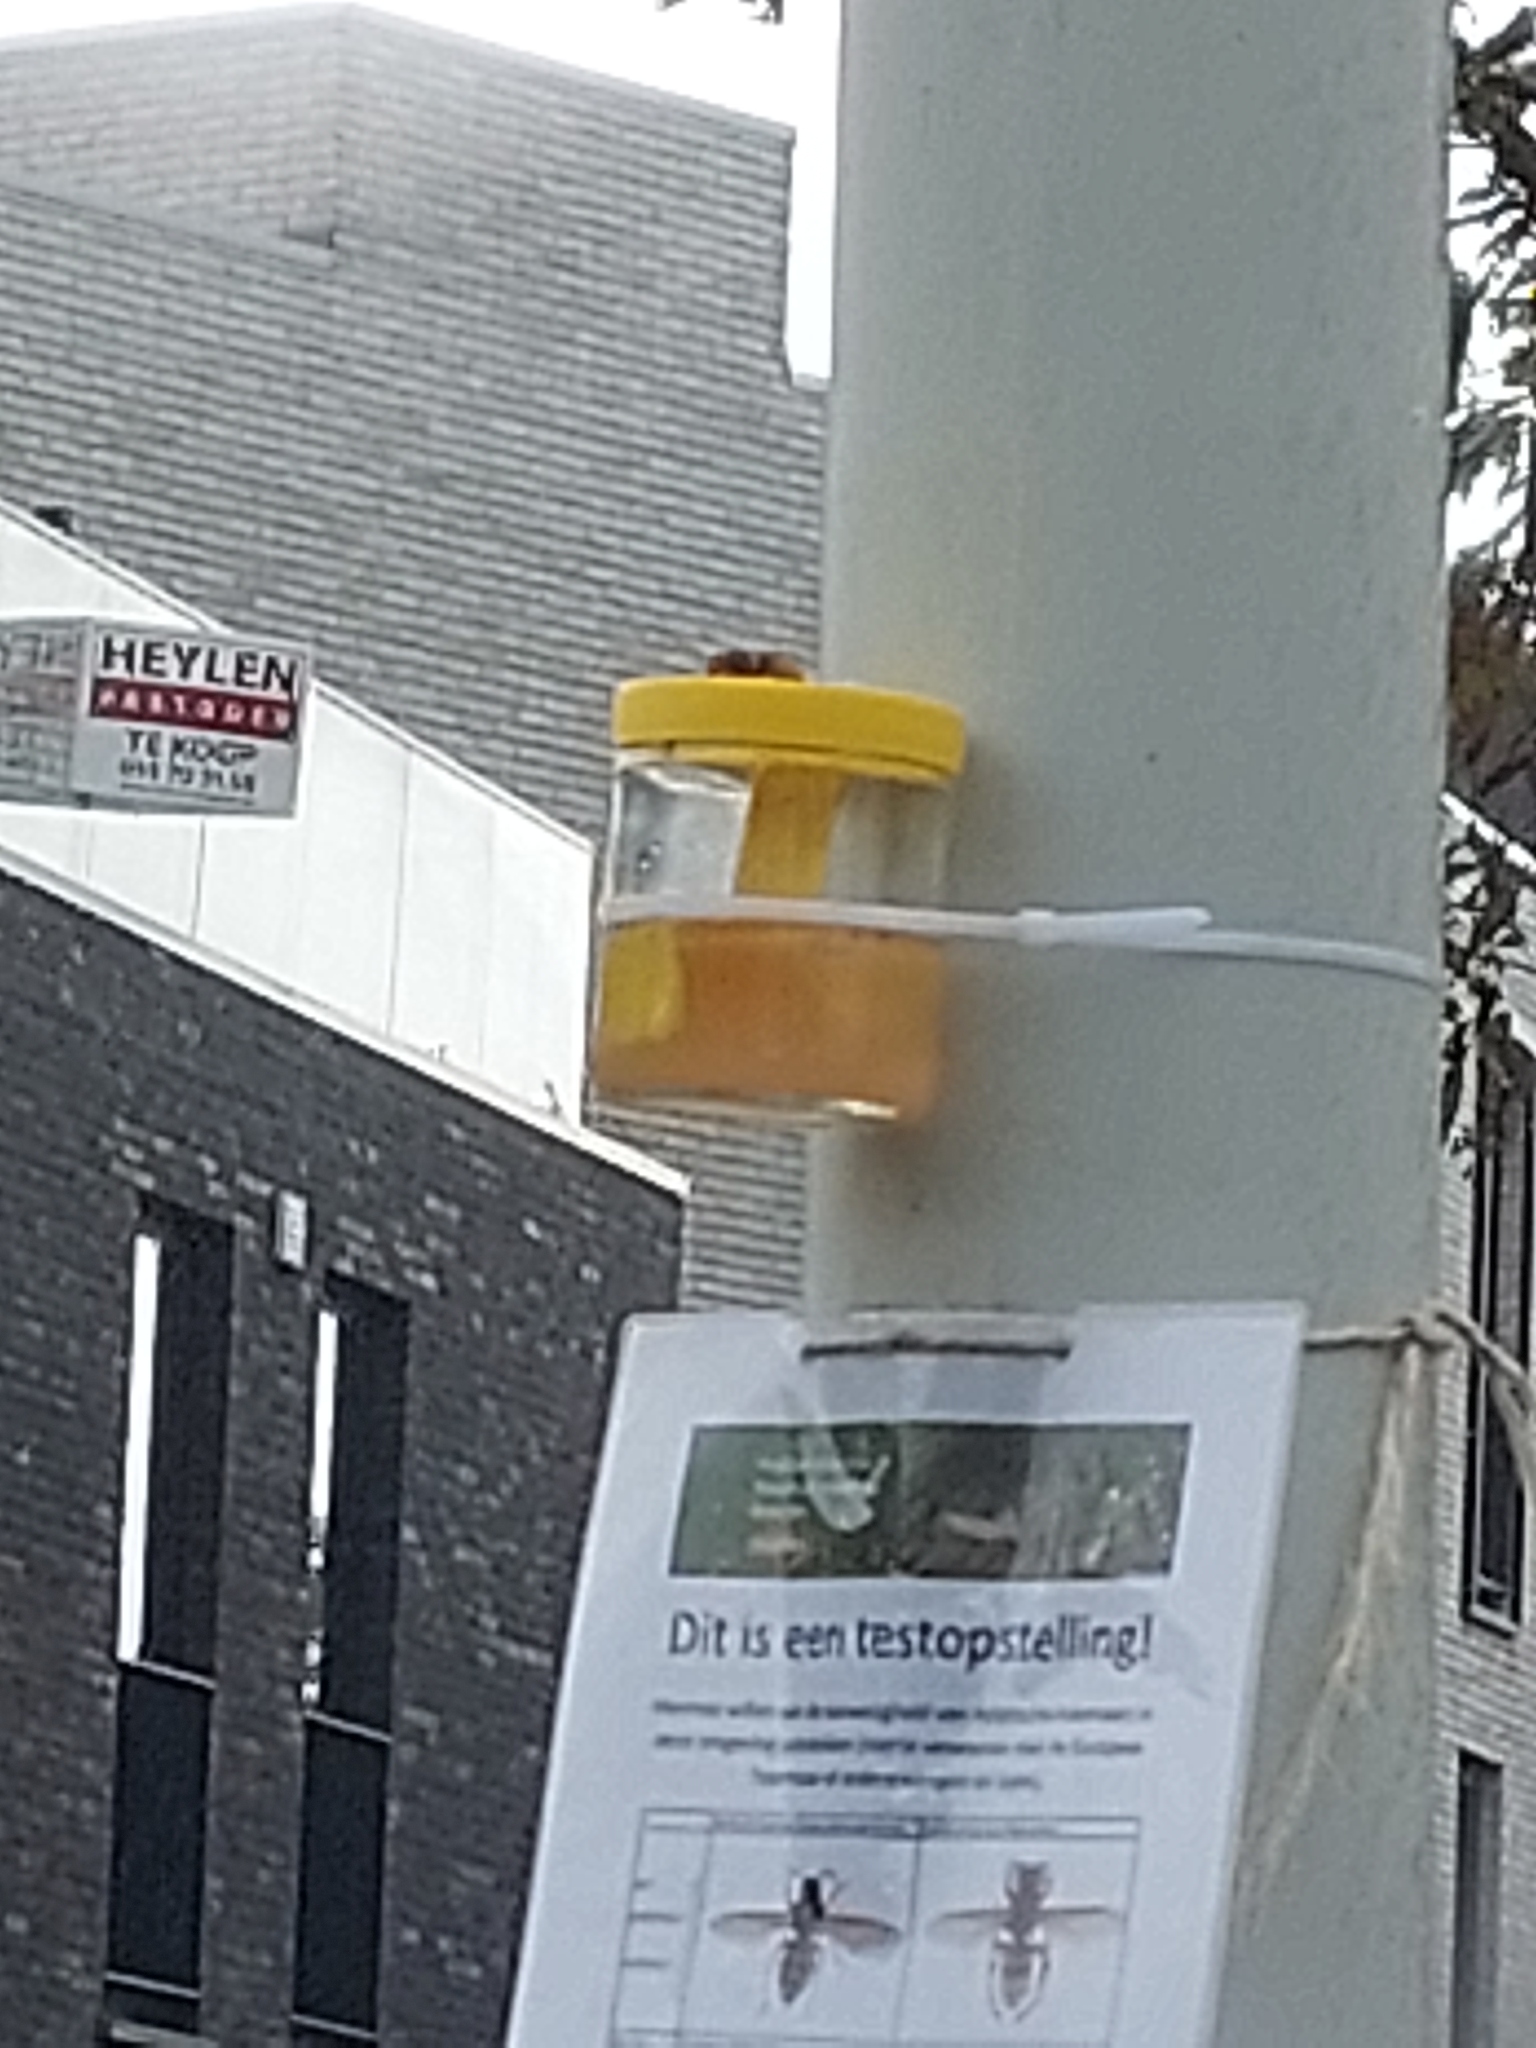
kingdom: Animalia
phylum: Arthropoda
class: Insecta
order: Hymenoptera
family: Vespidae
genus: Vespa
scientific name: Vespa crabro
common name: Hornet
